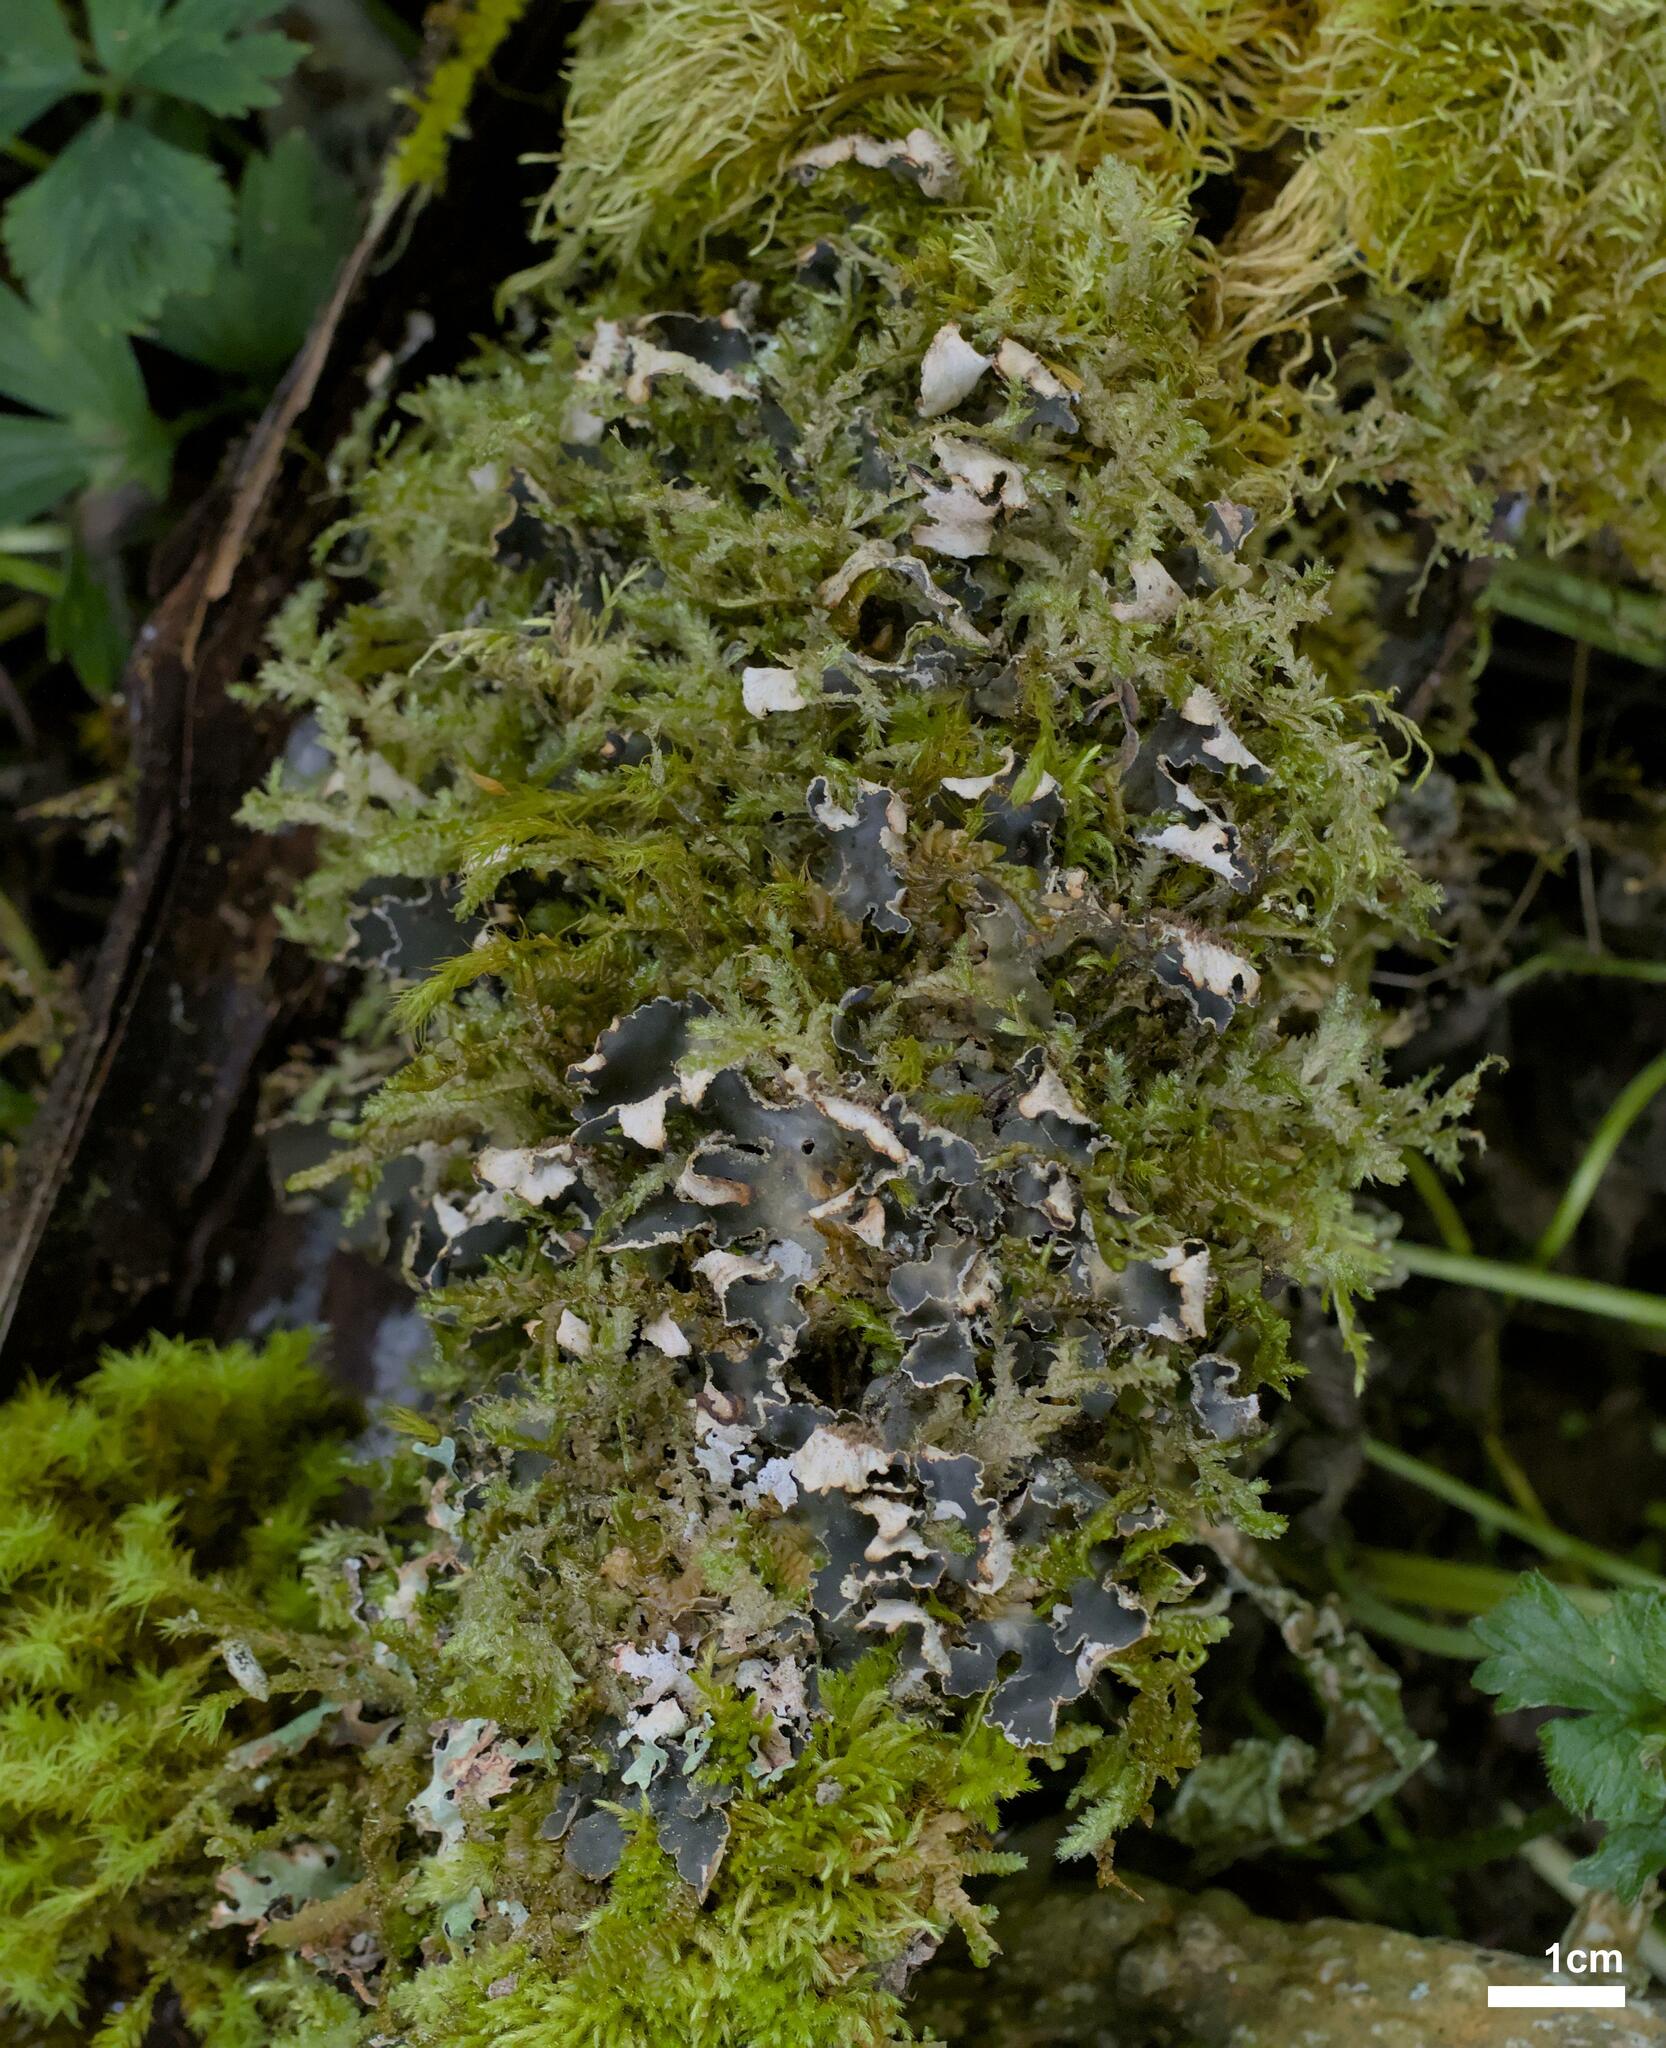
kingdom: Fungi
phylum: Ascomycota
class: Lecanoromycetes
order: Peltigerales
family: Peltigeraceae
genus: Peltigera
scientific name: Peltigera collina
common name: Gritty tree pelt lichen
